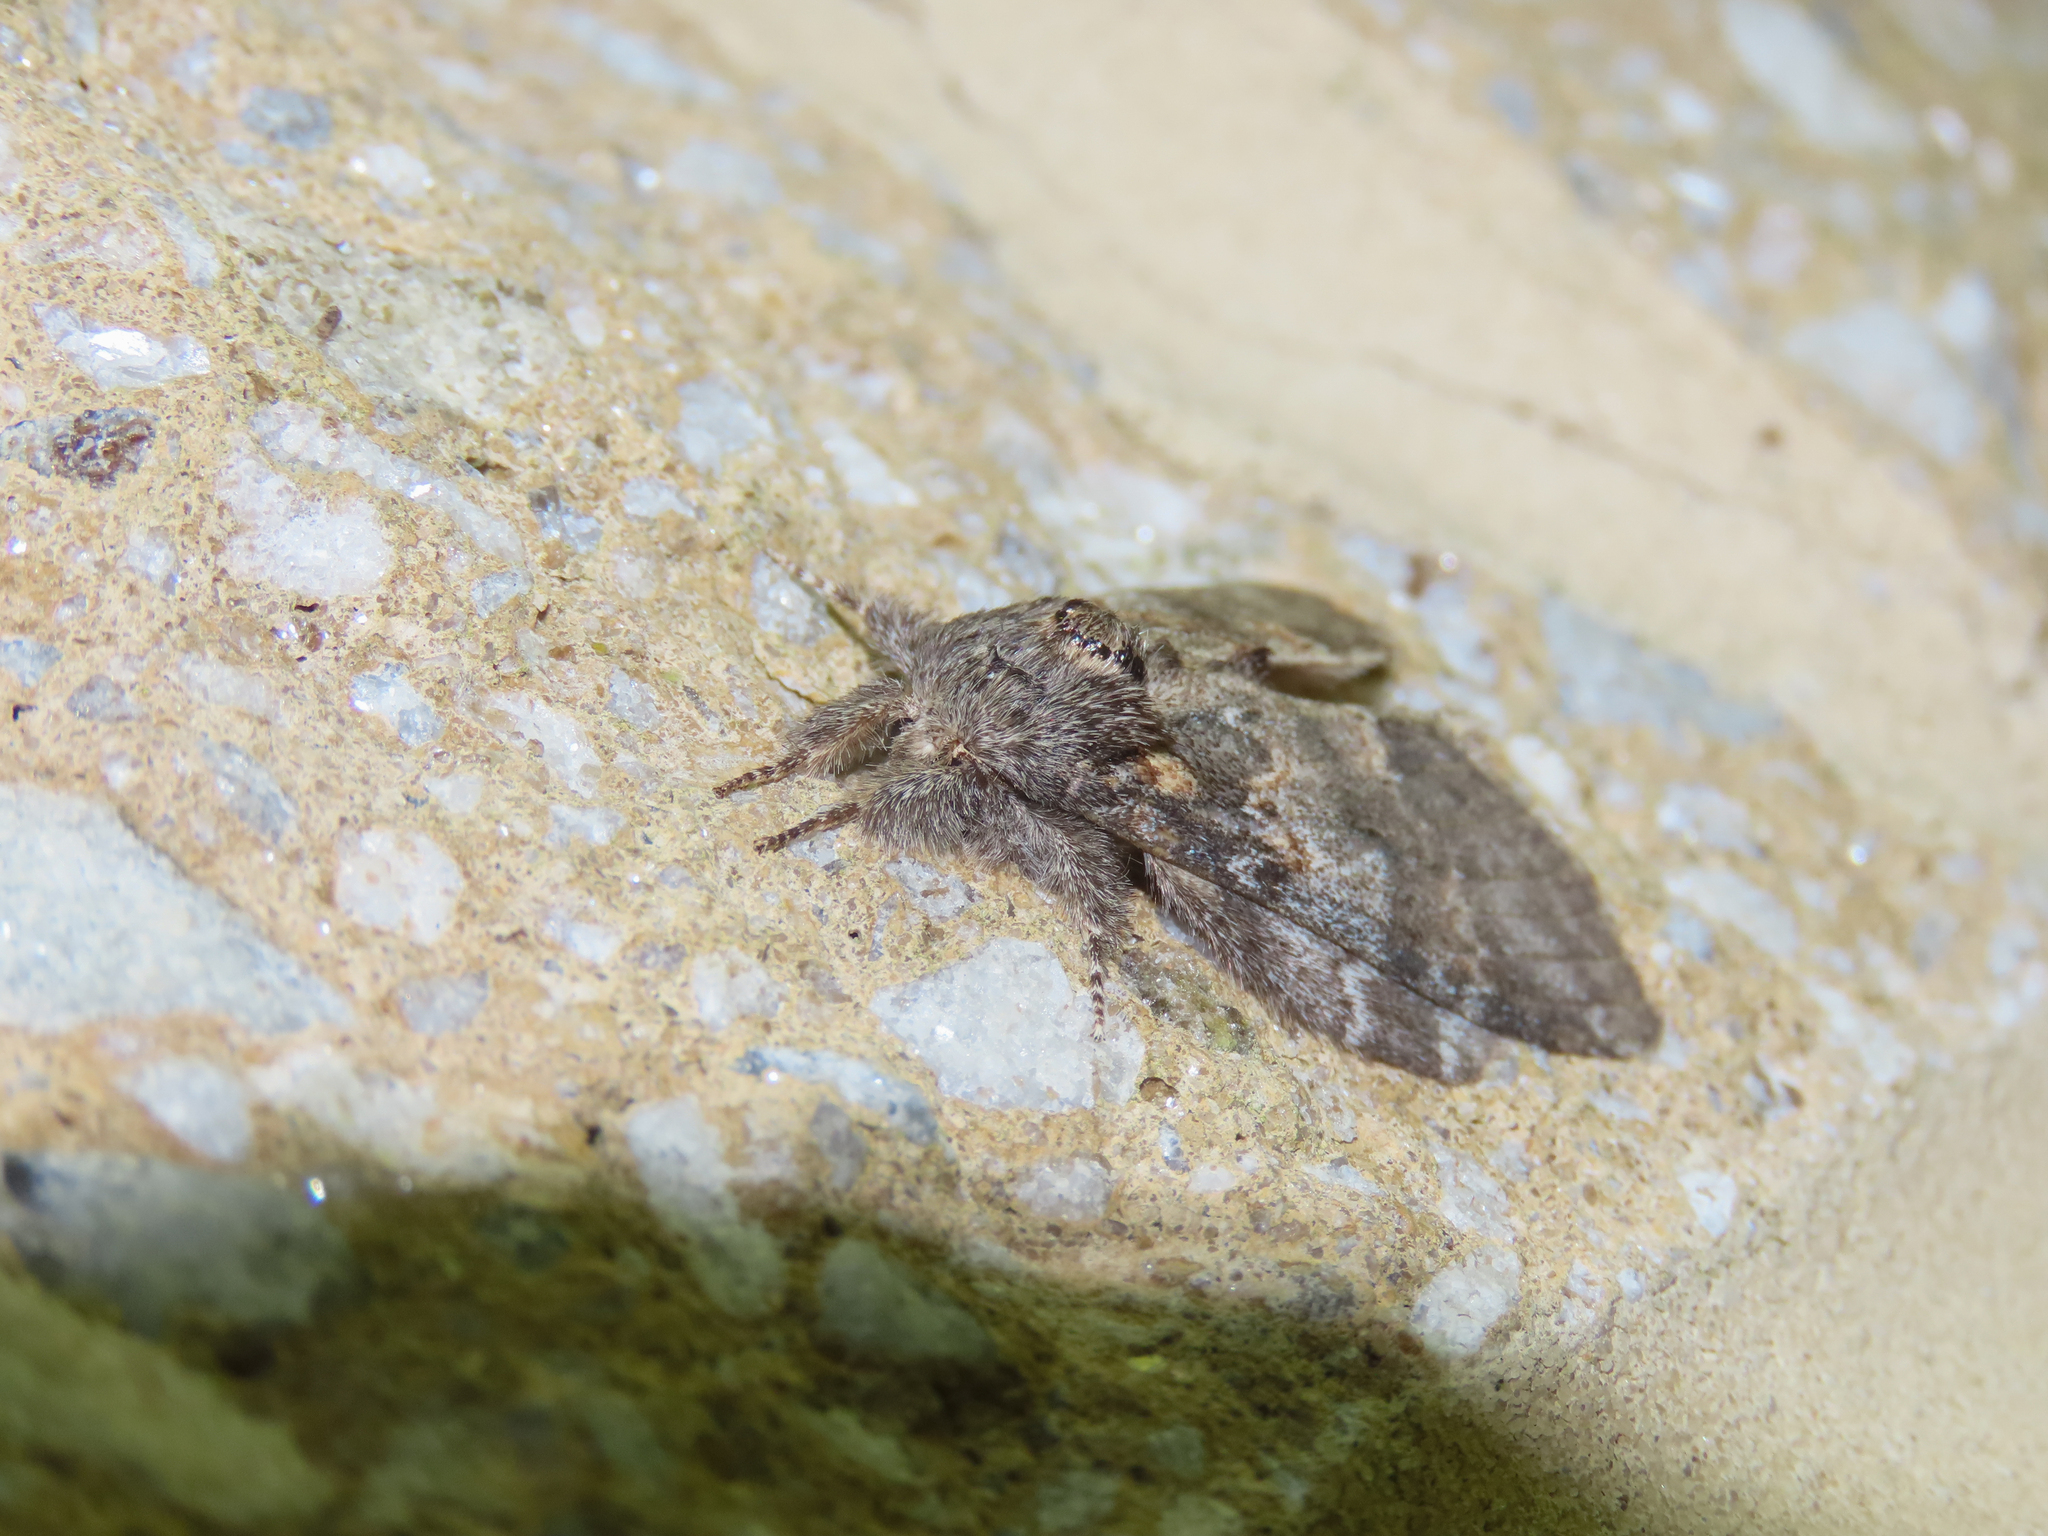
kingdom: Animalia
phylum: Arthropoda
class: Insecta
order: Lepidoptera
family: Notodontidae
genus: Peridea
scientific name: Peridea angulosa
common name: Angulose prominent
